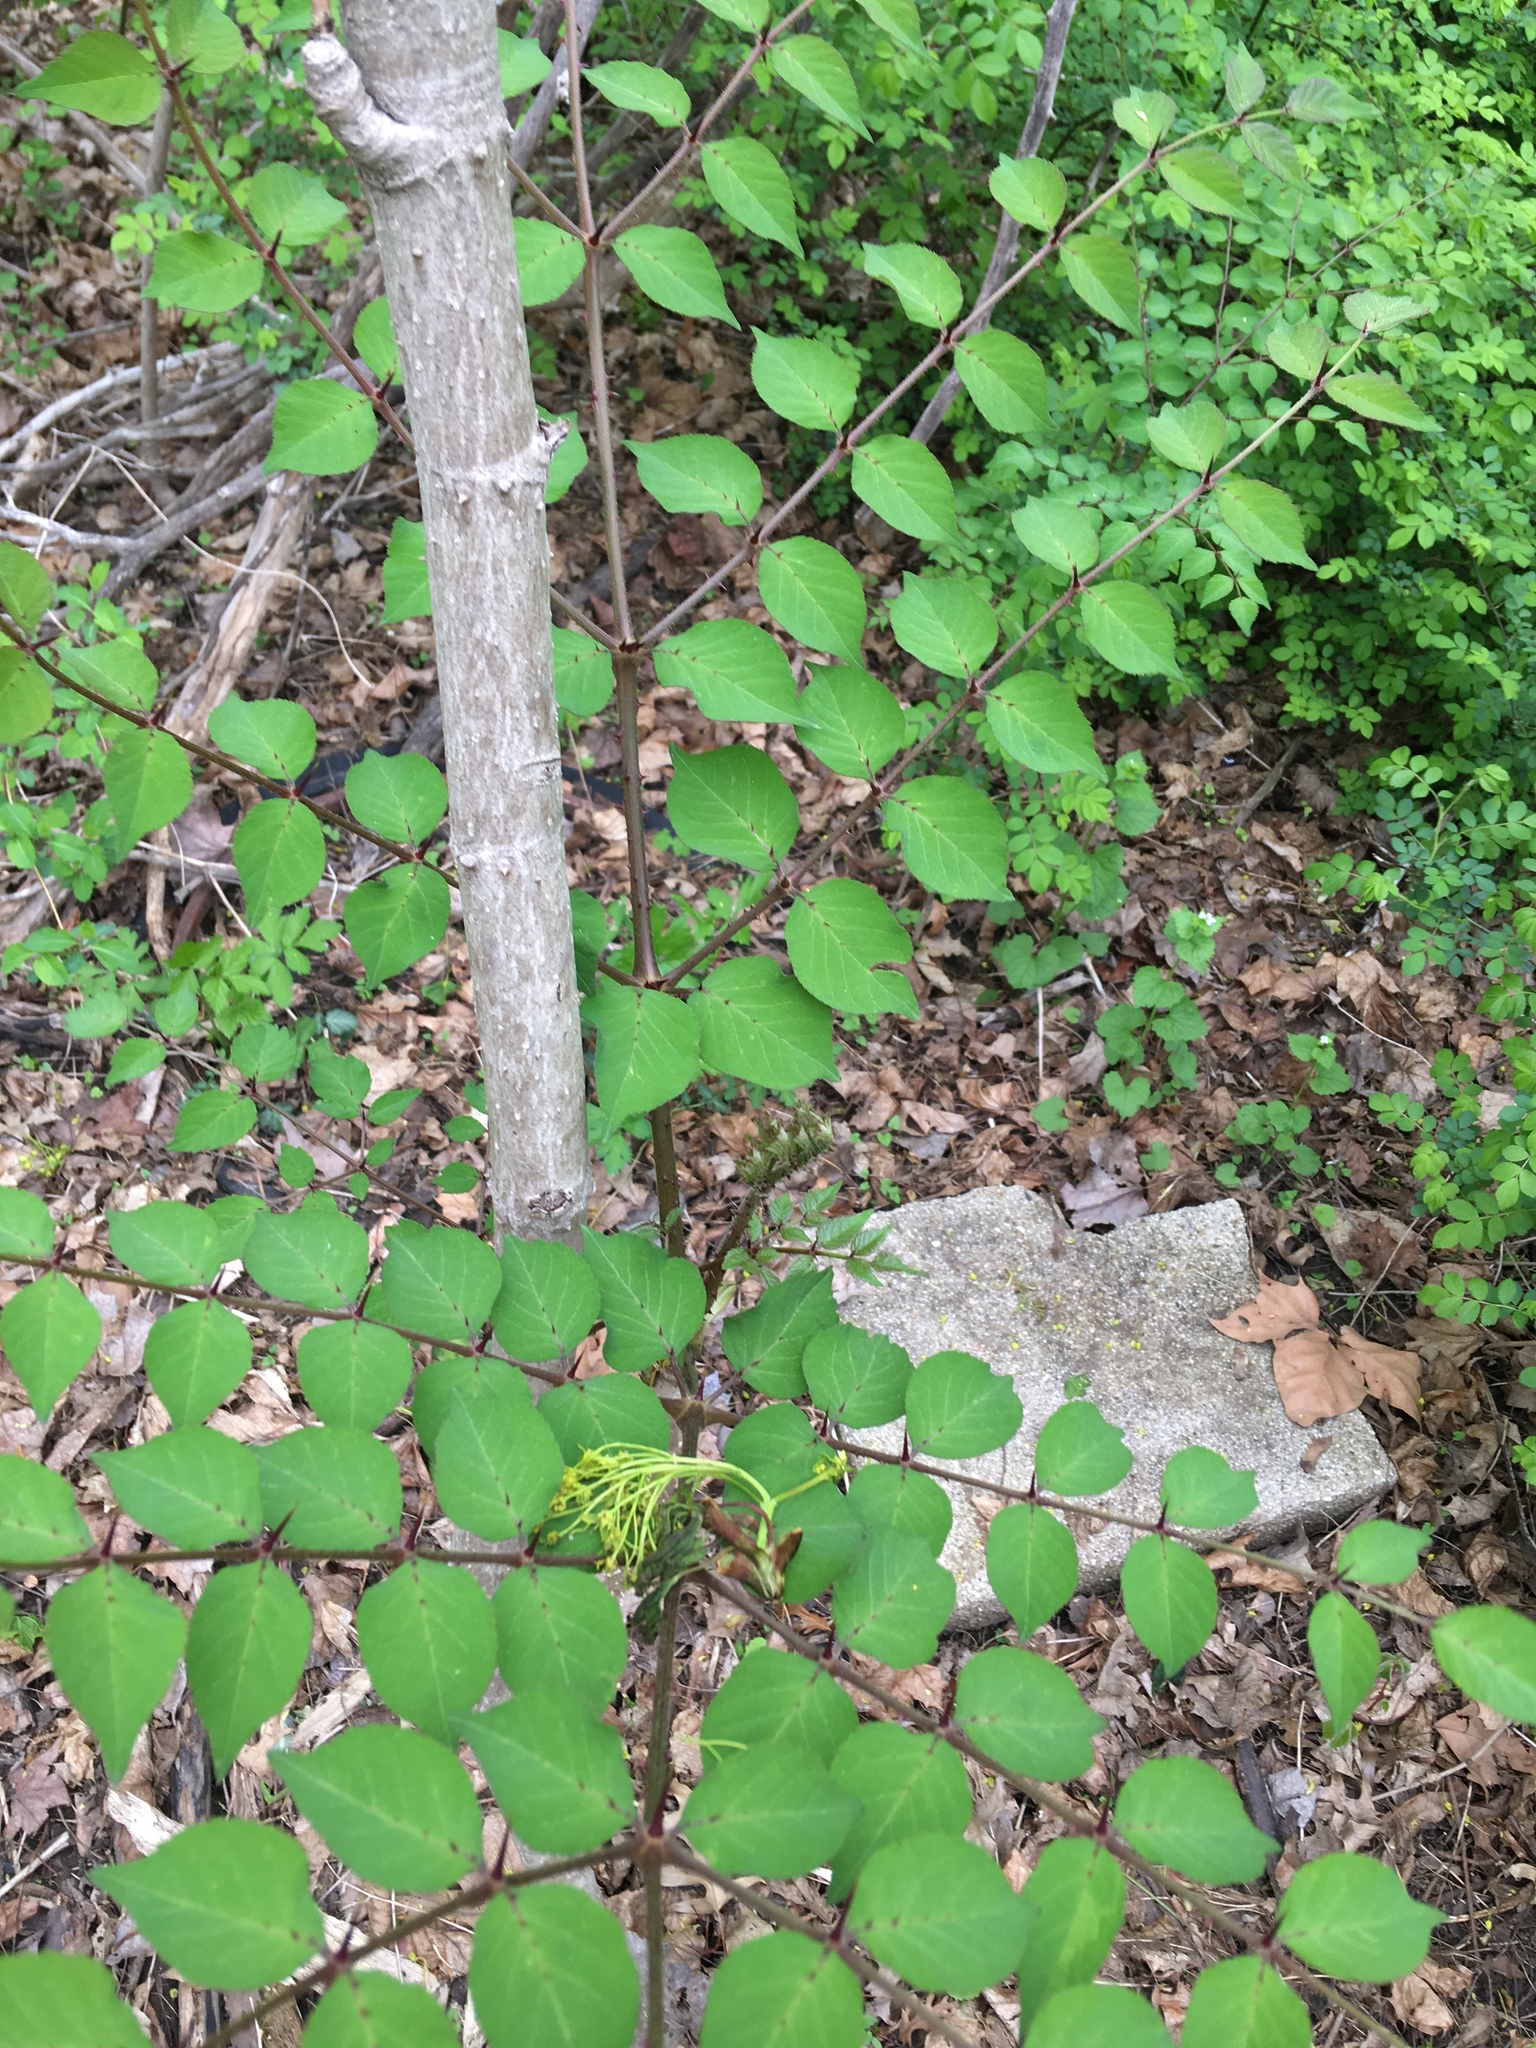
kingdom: Plantae
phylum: Tracheophyta
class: Magnoliopsida
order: Apiales
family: Araliaceae
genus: Aralia
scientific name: Aralia elata
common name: Japanese angelica-tree
